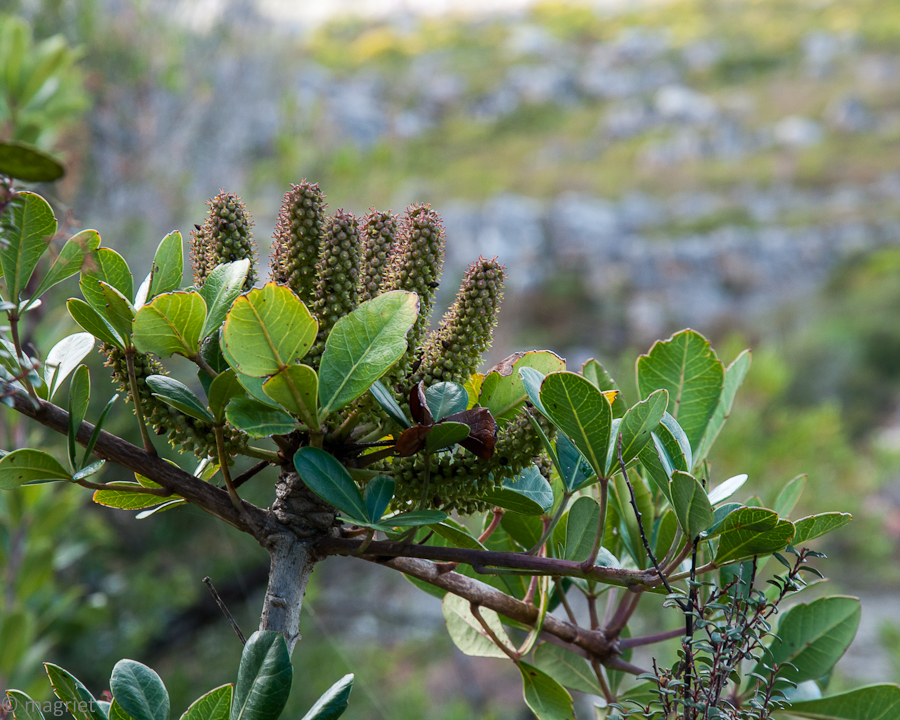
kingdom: Plantae
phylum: Tracheophyta
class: Magnoliopsida
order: Apiales
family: Araliaceae
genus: Cussonia
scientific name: Cussonia thyrsiflora
